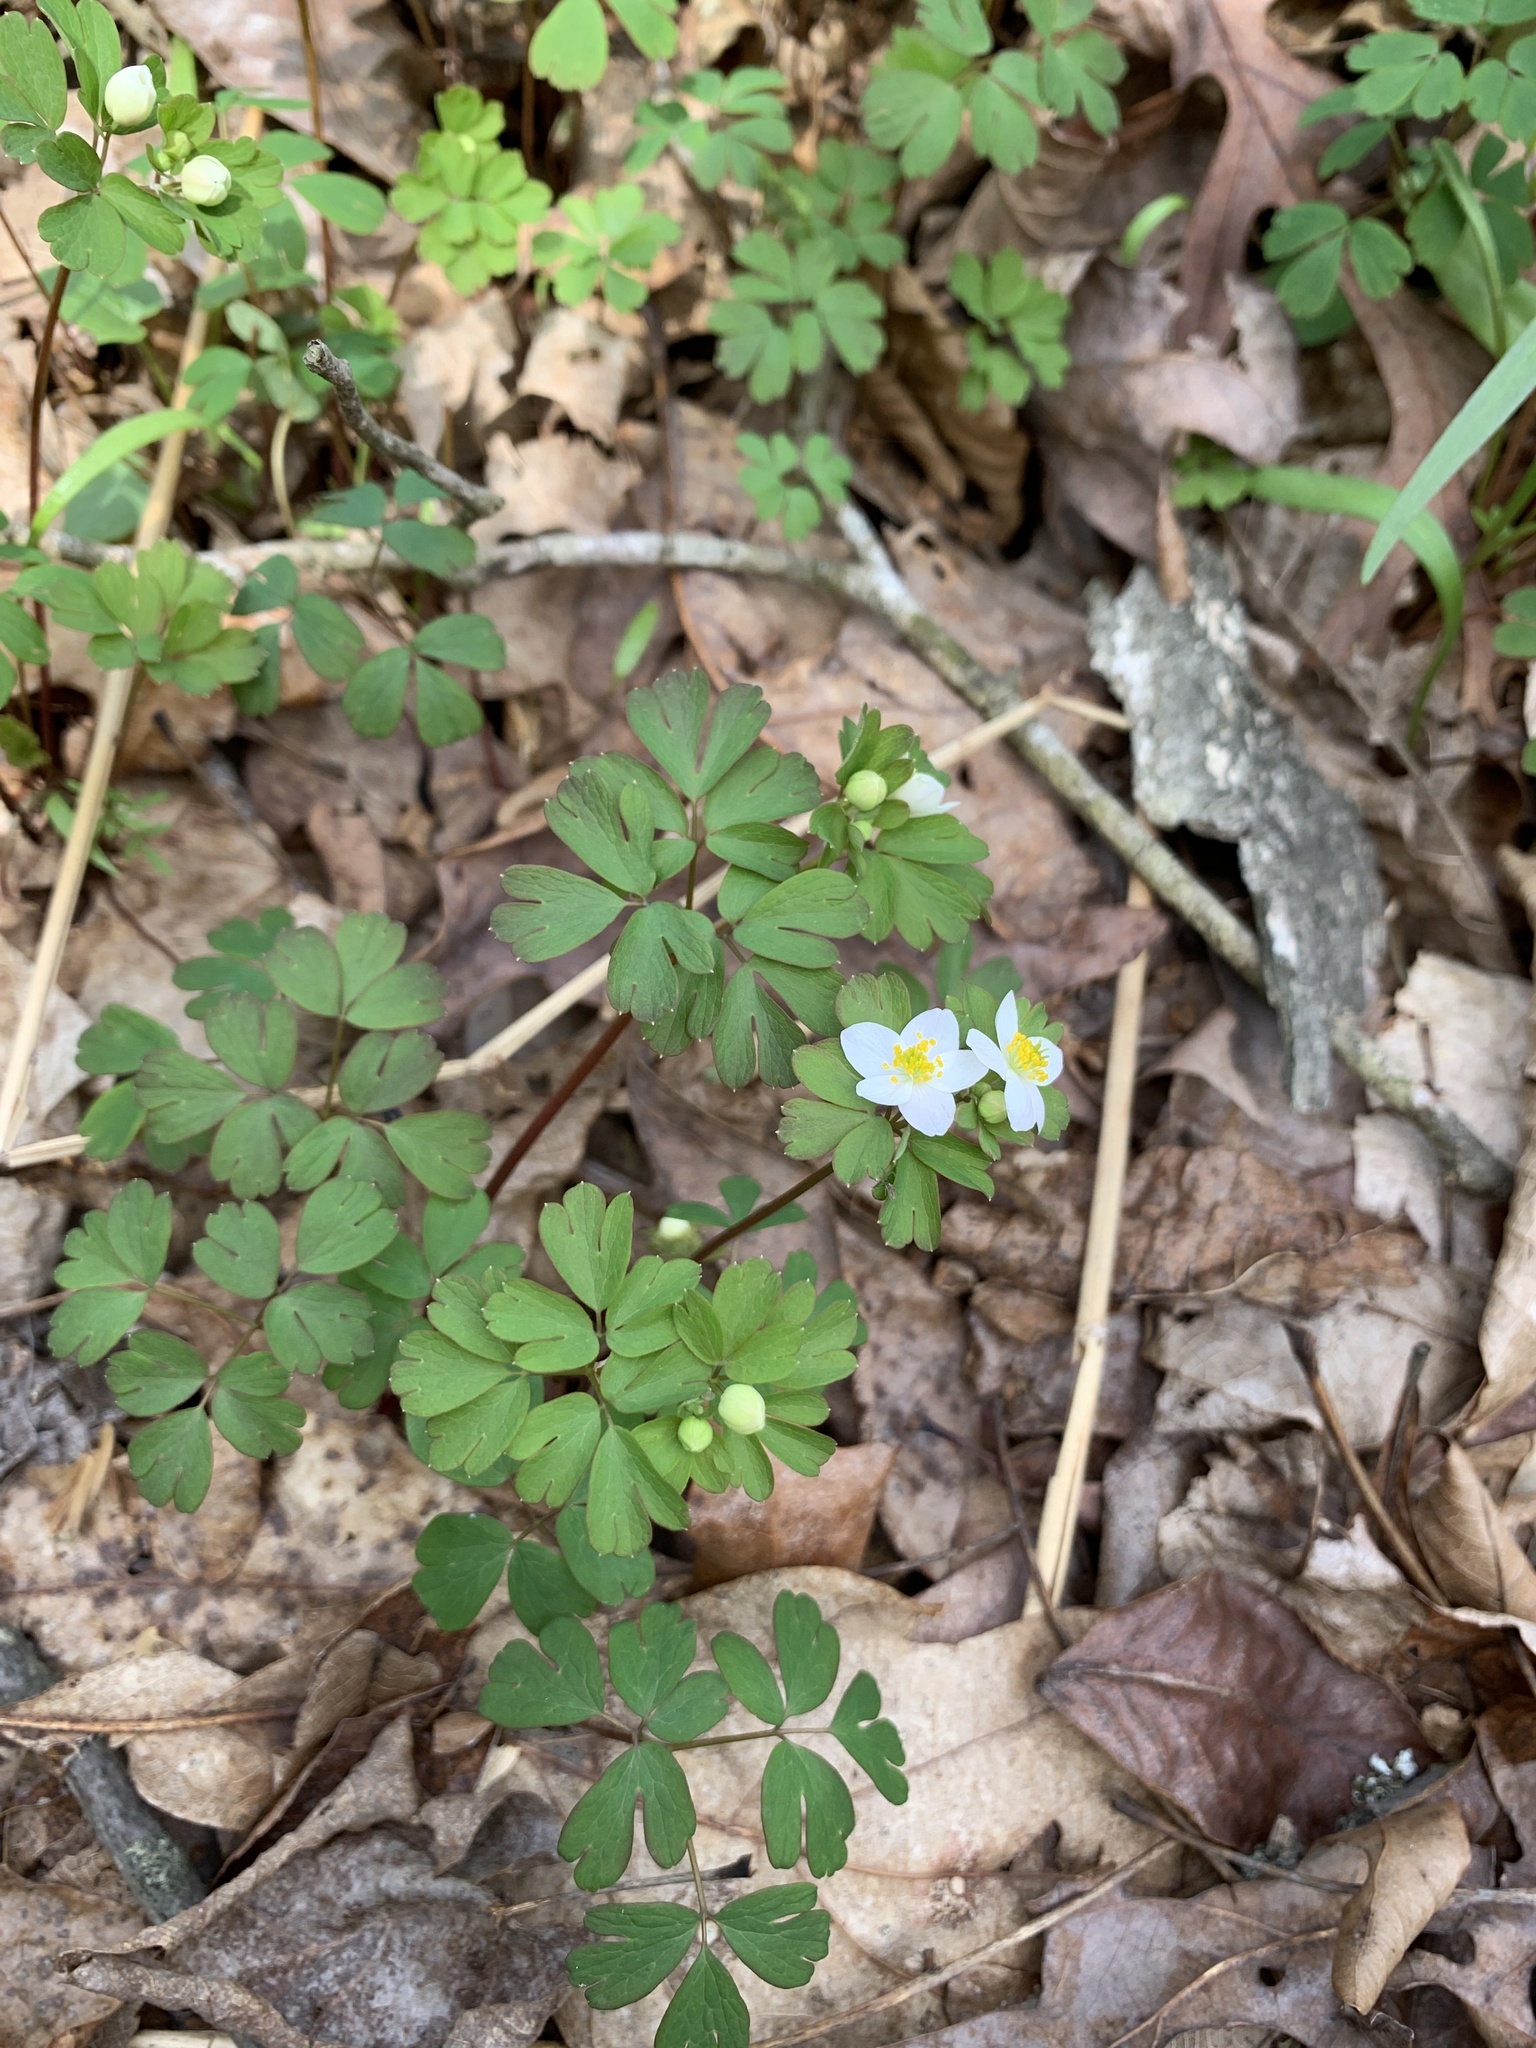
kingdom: Plantae
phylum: Tracheophyta
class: Magnoliopsida
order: Ranunculales
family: Ranunculaceae
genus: Enemion
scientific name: Enemion biternatum
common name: Eastern false rue-anemone
